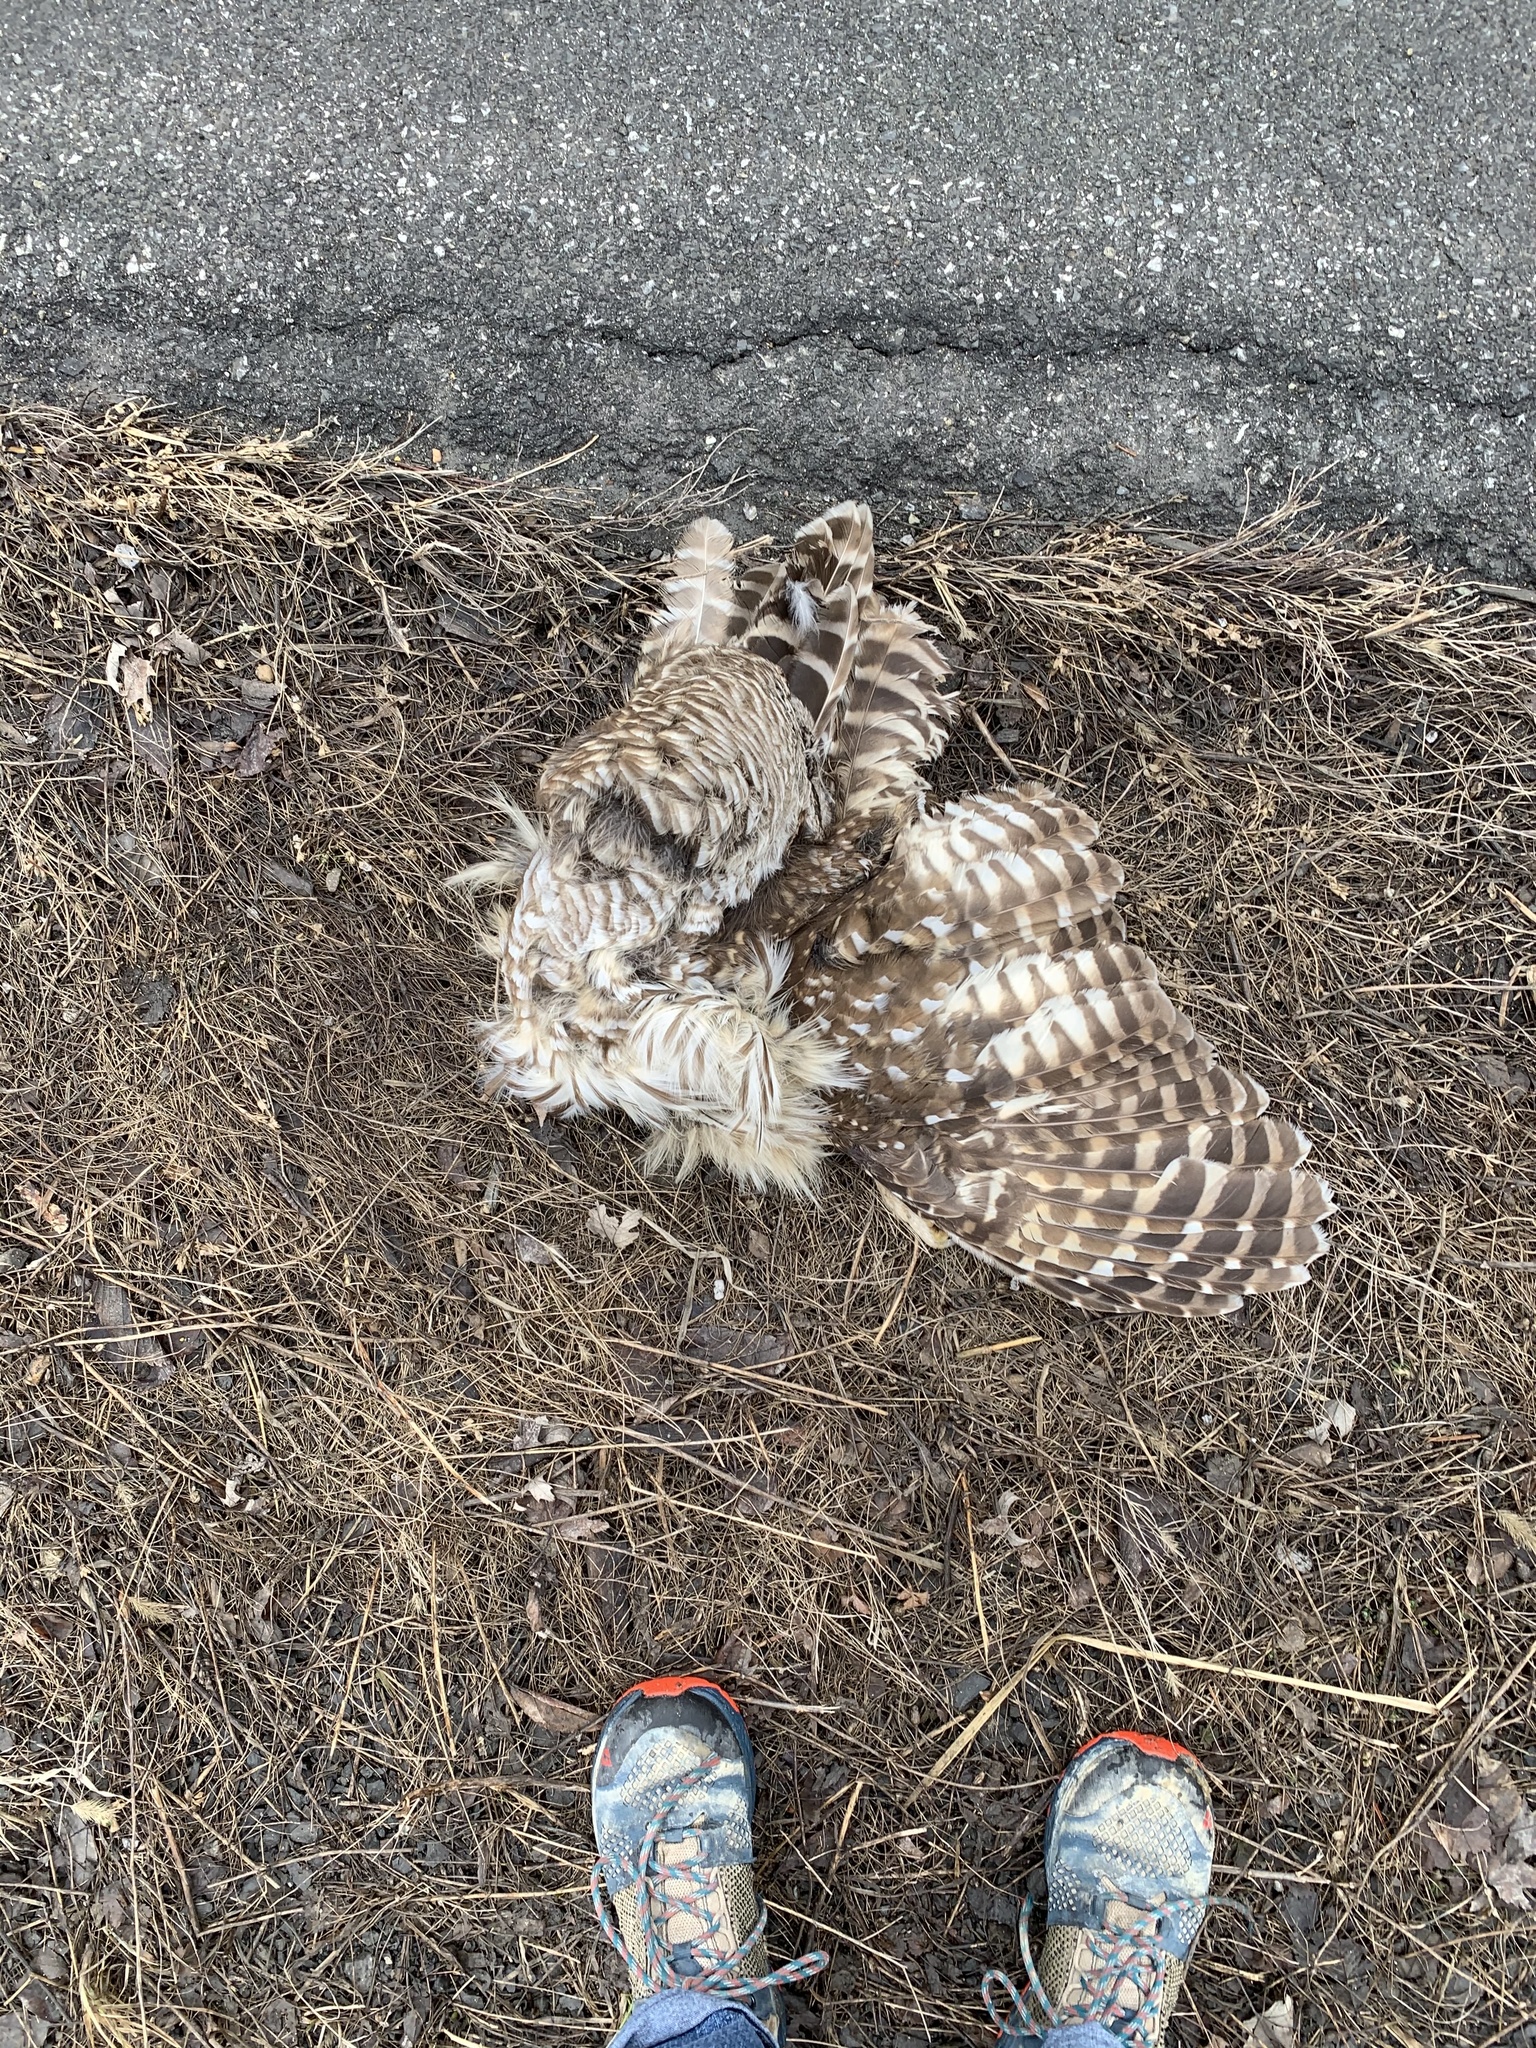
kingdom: Animalia
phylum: Chordata
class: Aves
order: Strigiformes
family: Strigidae
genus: Strix
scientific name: Strix varia
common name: Barred owl
